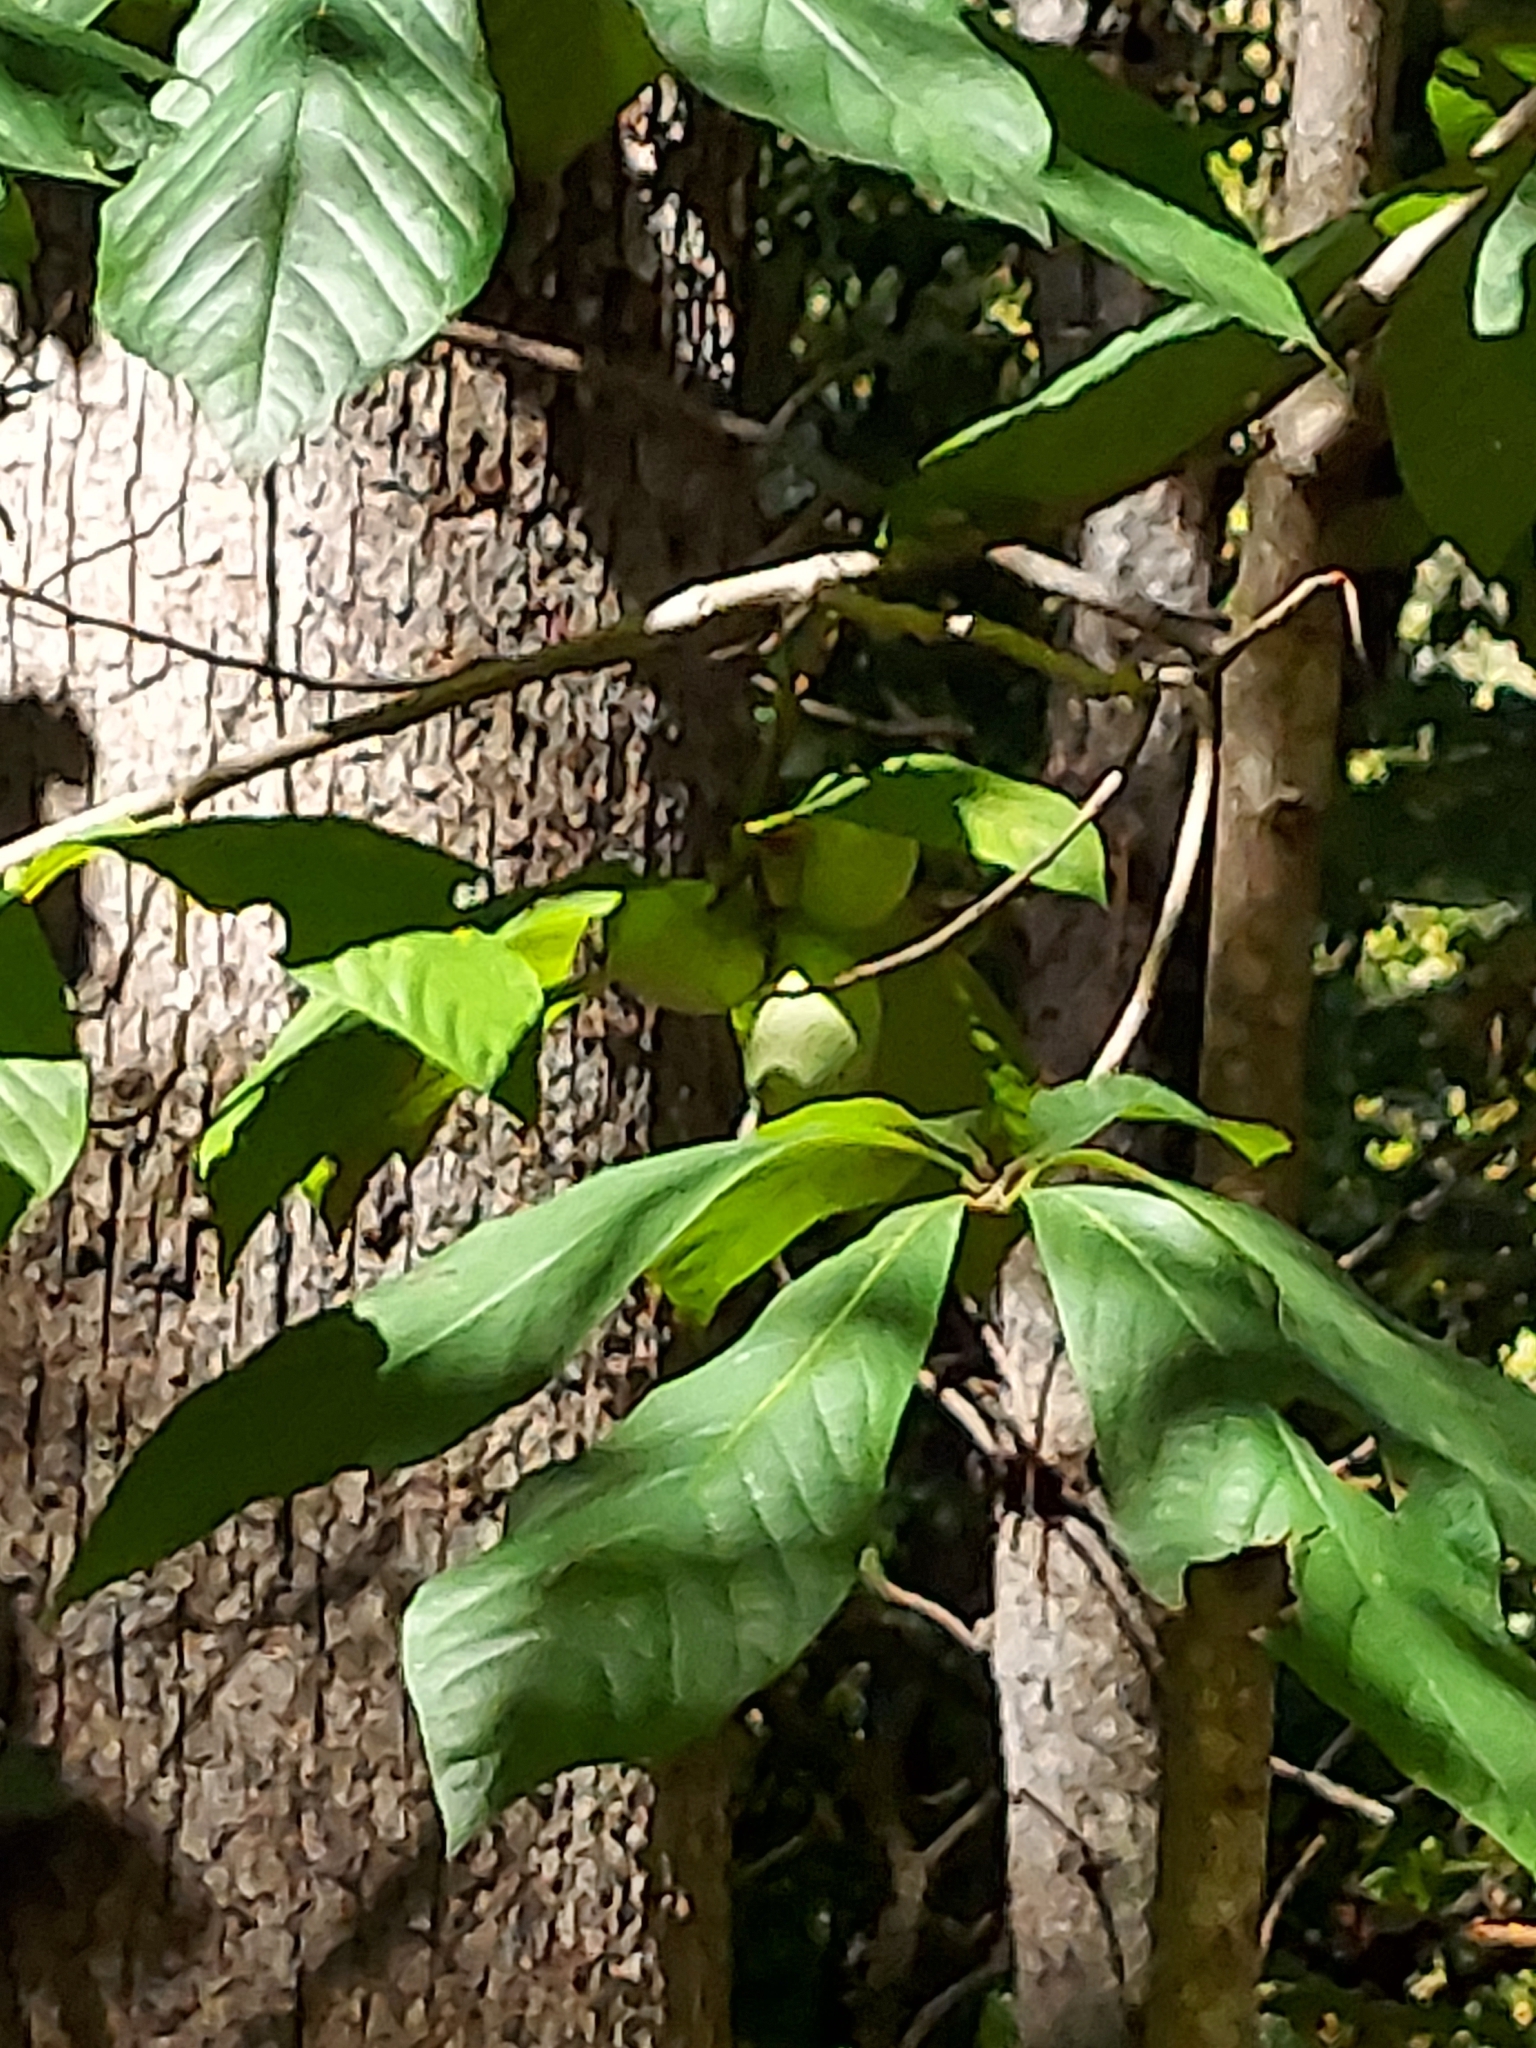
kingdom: Plantae
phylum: Tracheophyta
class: Magnoliopsida
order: Magnoliales
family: Annonaceae
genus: Asimina
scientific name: Asimina triloba
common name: Dog-banana
